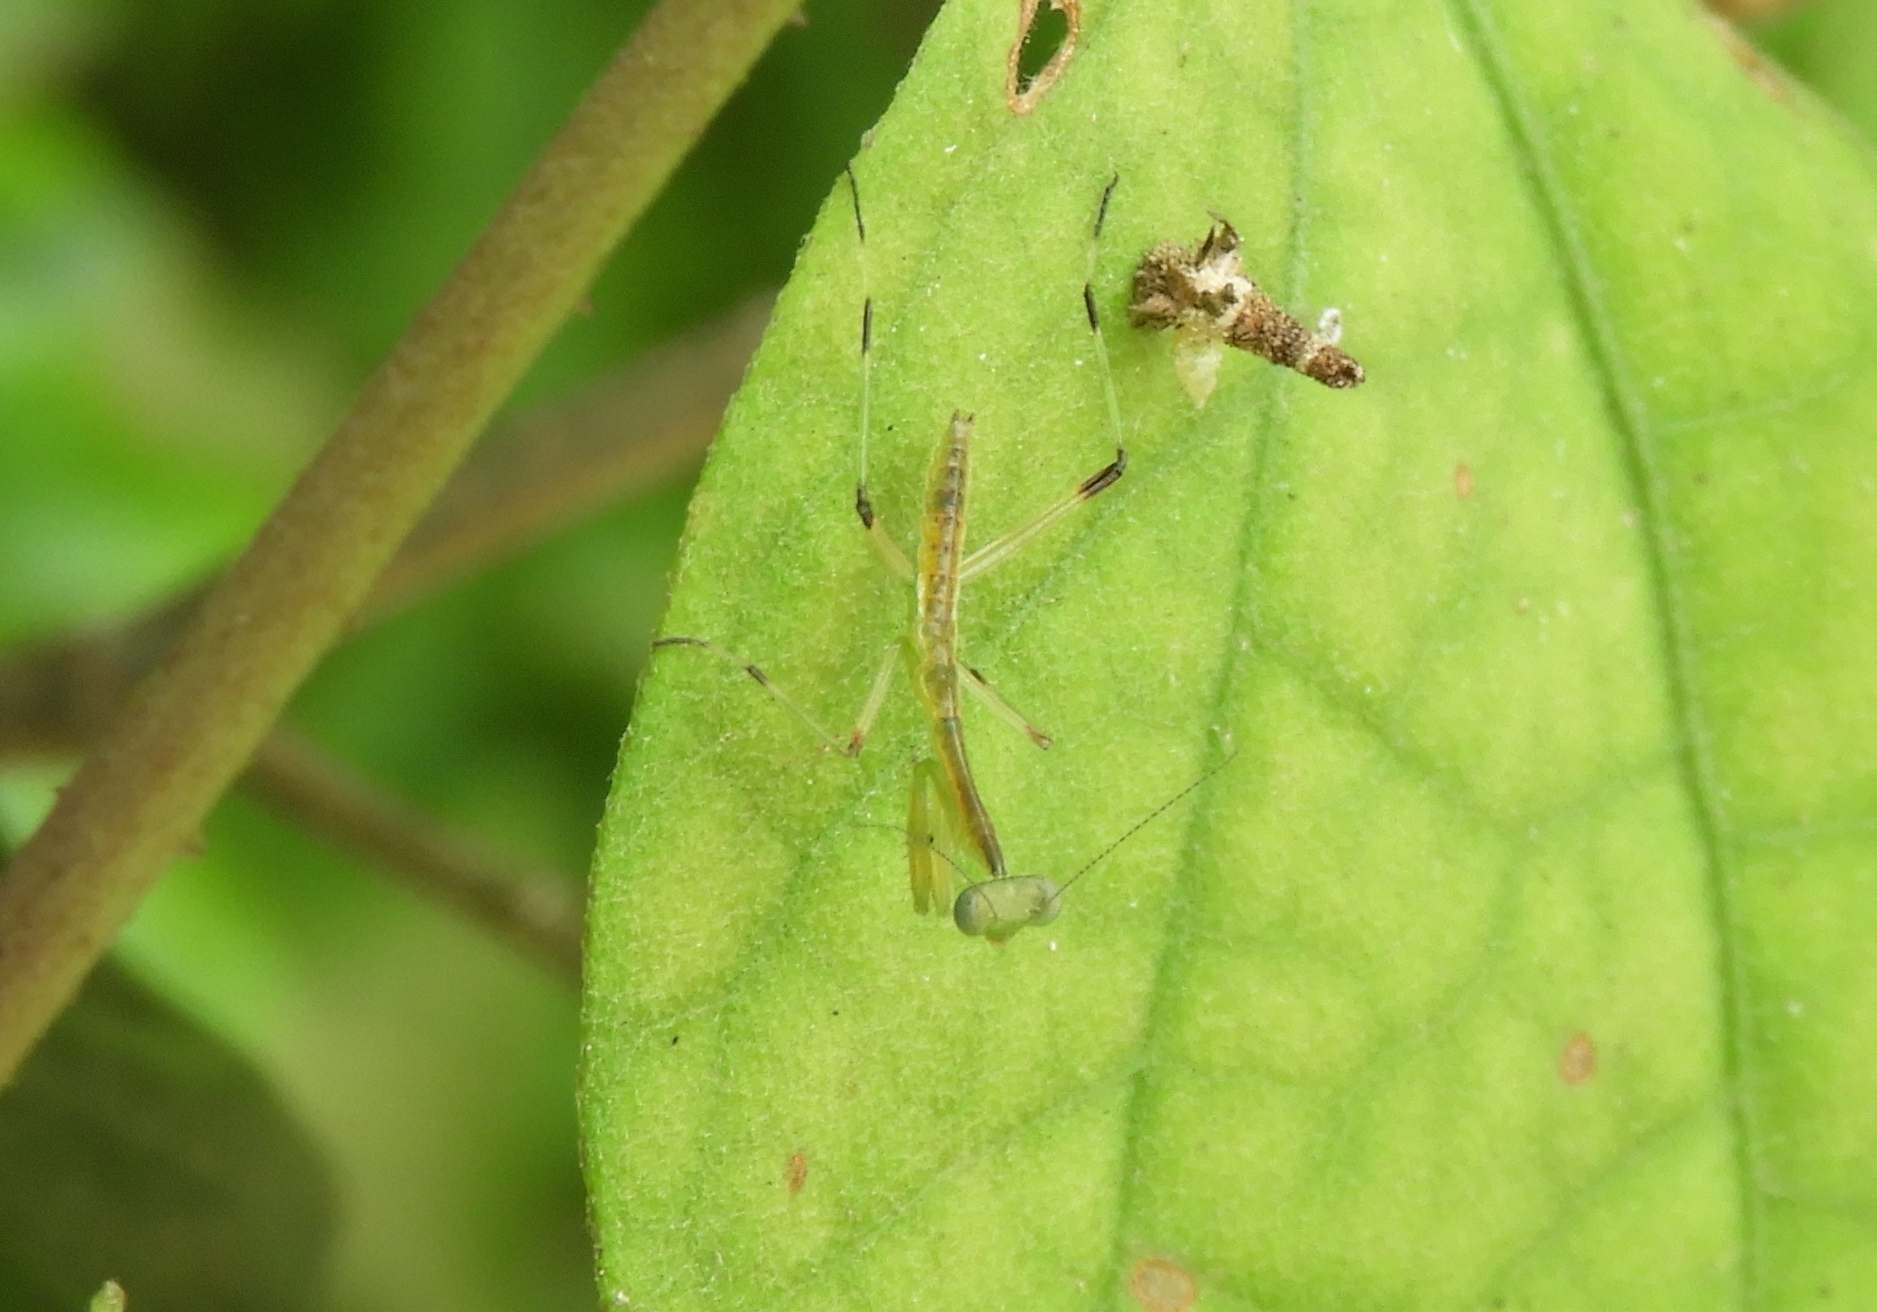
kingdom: Animalia
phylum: Arthropoda
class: Insecta
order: Mantodea
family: Mantidae
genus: Stagmomantis
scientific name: Stagmomantis
